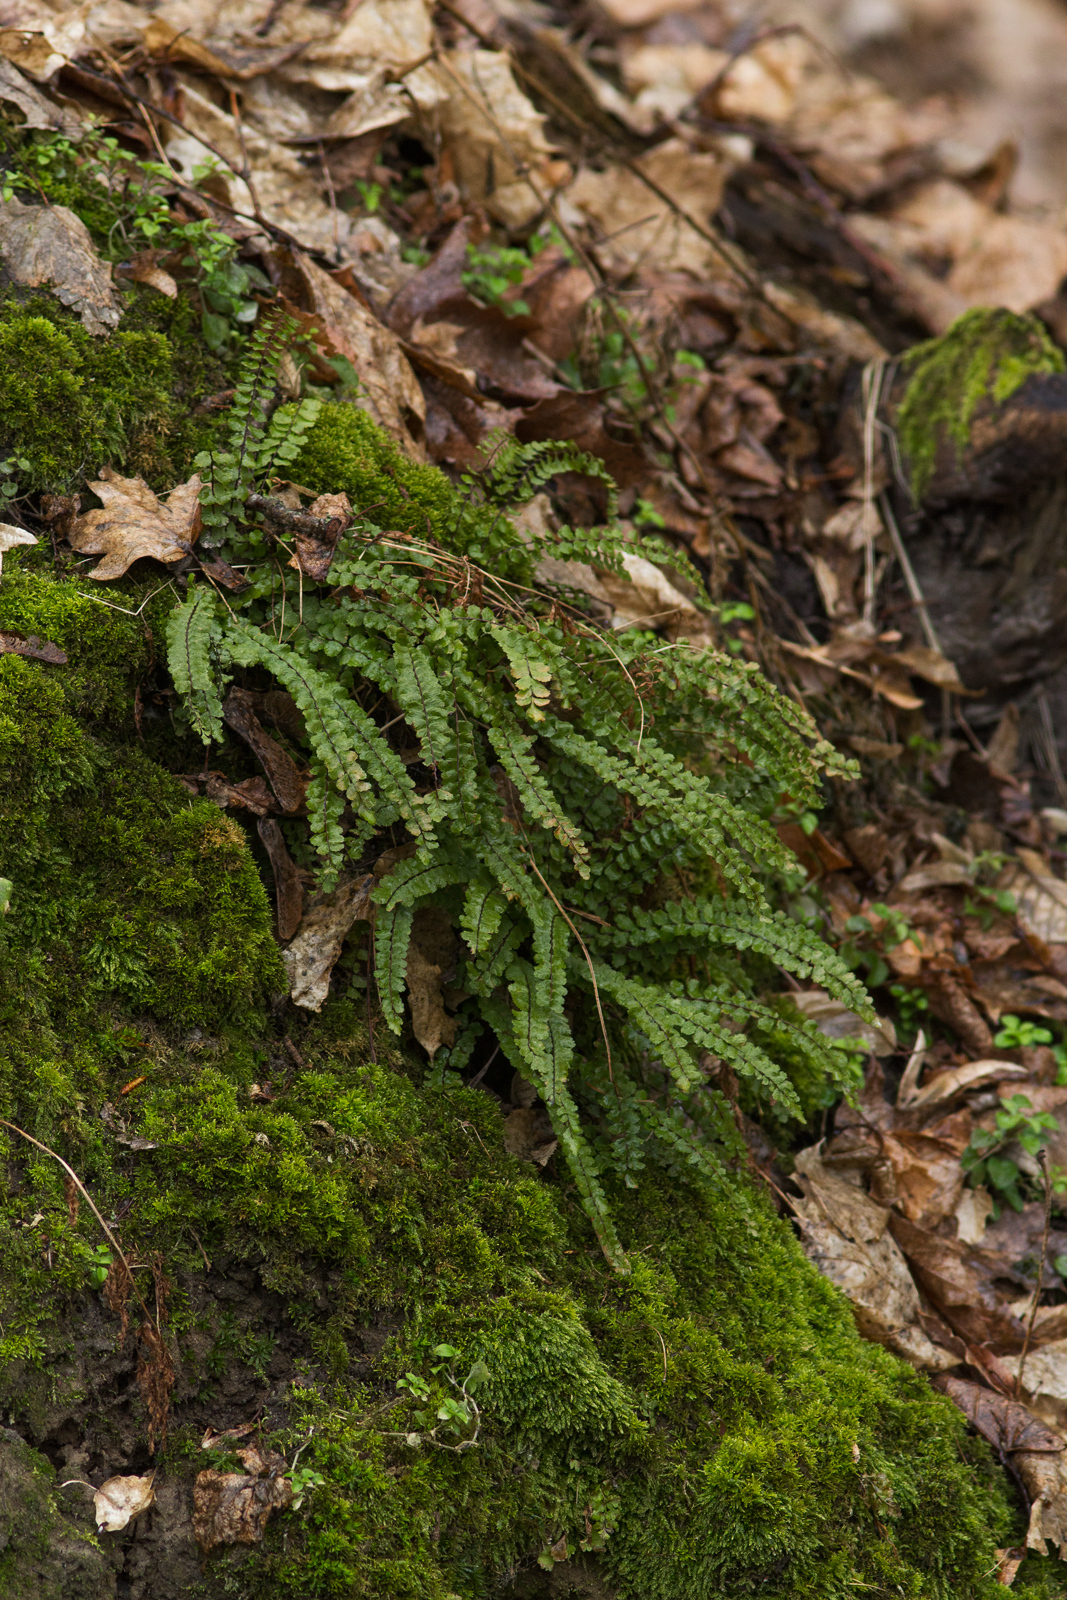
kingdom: Plantae
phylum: Tracheophyta
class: Polypodiopsida
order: Polypodiales
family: Aspleniaceae
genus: Asplenium
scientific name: Asplenium trichomanes
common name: Maidenhair spleenwort
